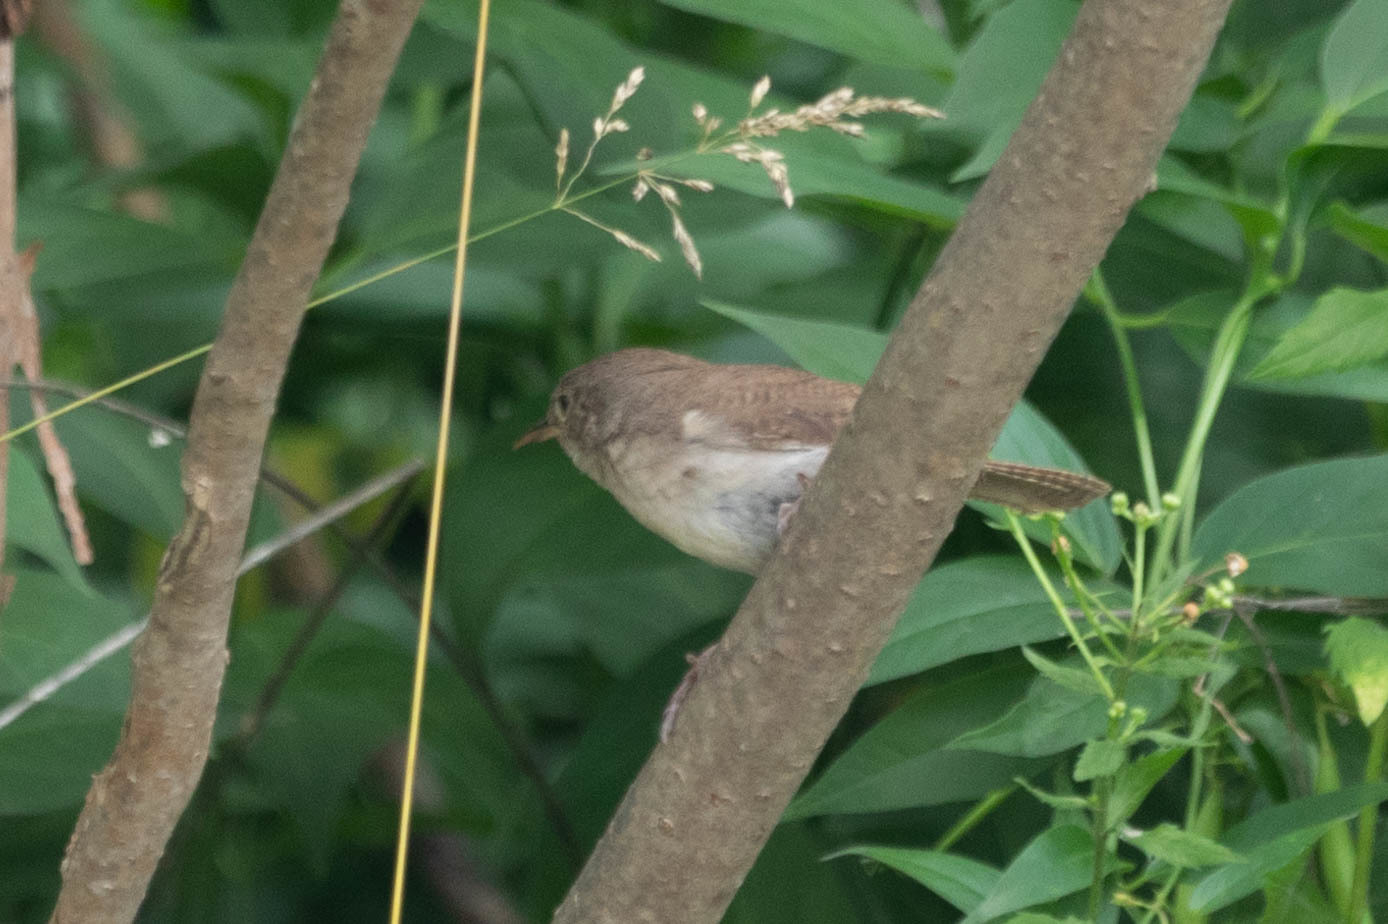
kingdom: Animalia
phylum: Chordata
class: Aves
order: Passeriformes
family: Troglodytidae
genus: Troglodytes
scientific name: Troglodytes aedon
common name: House wren
